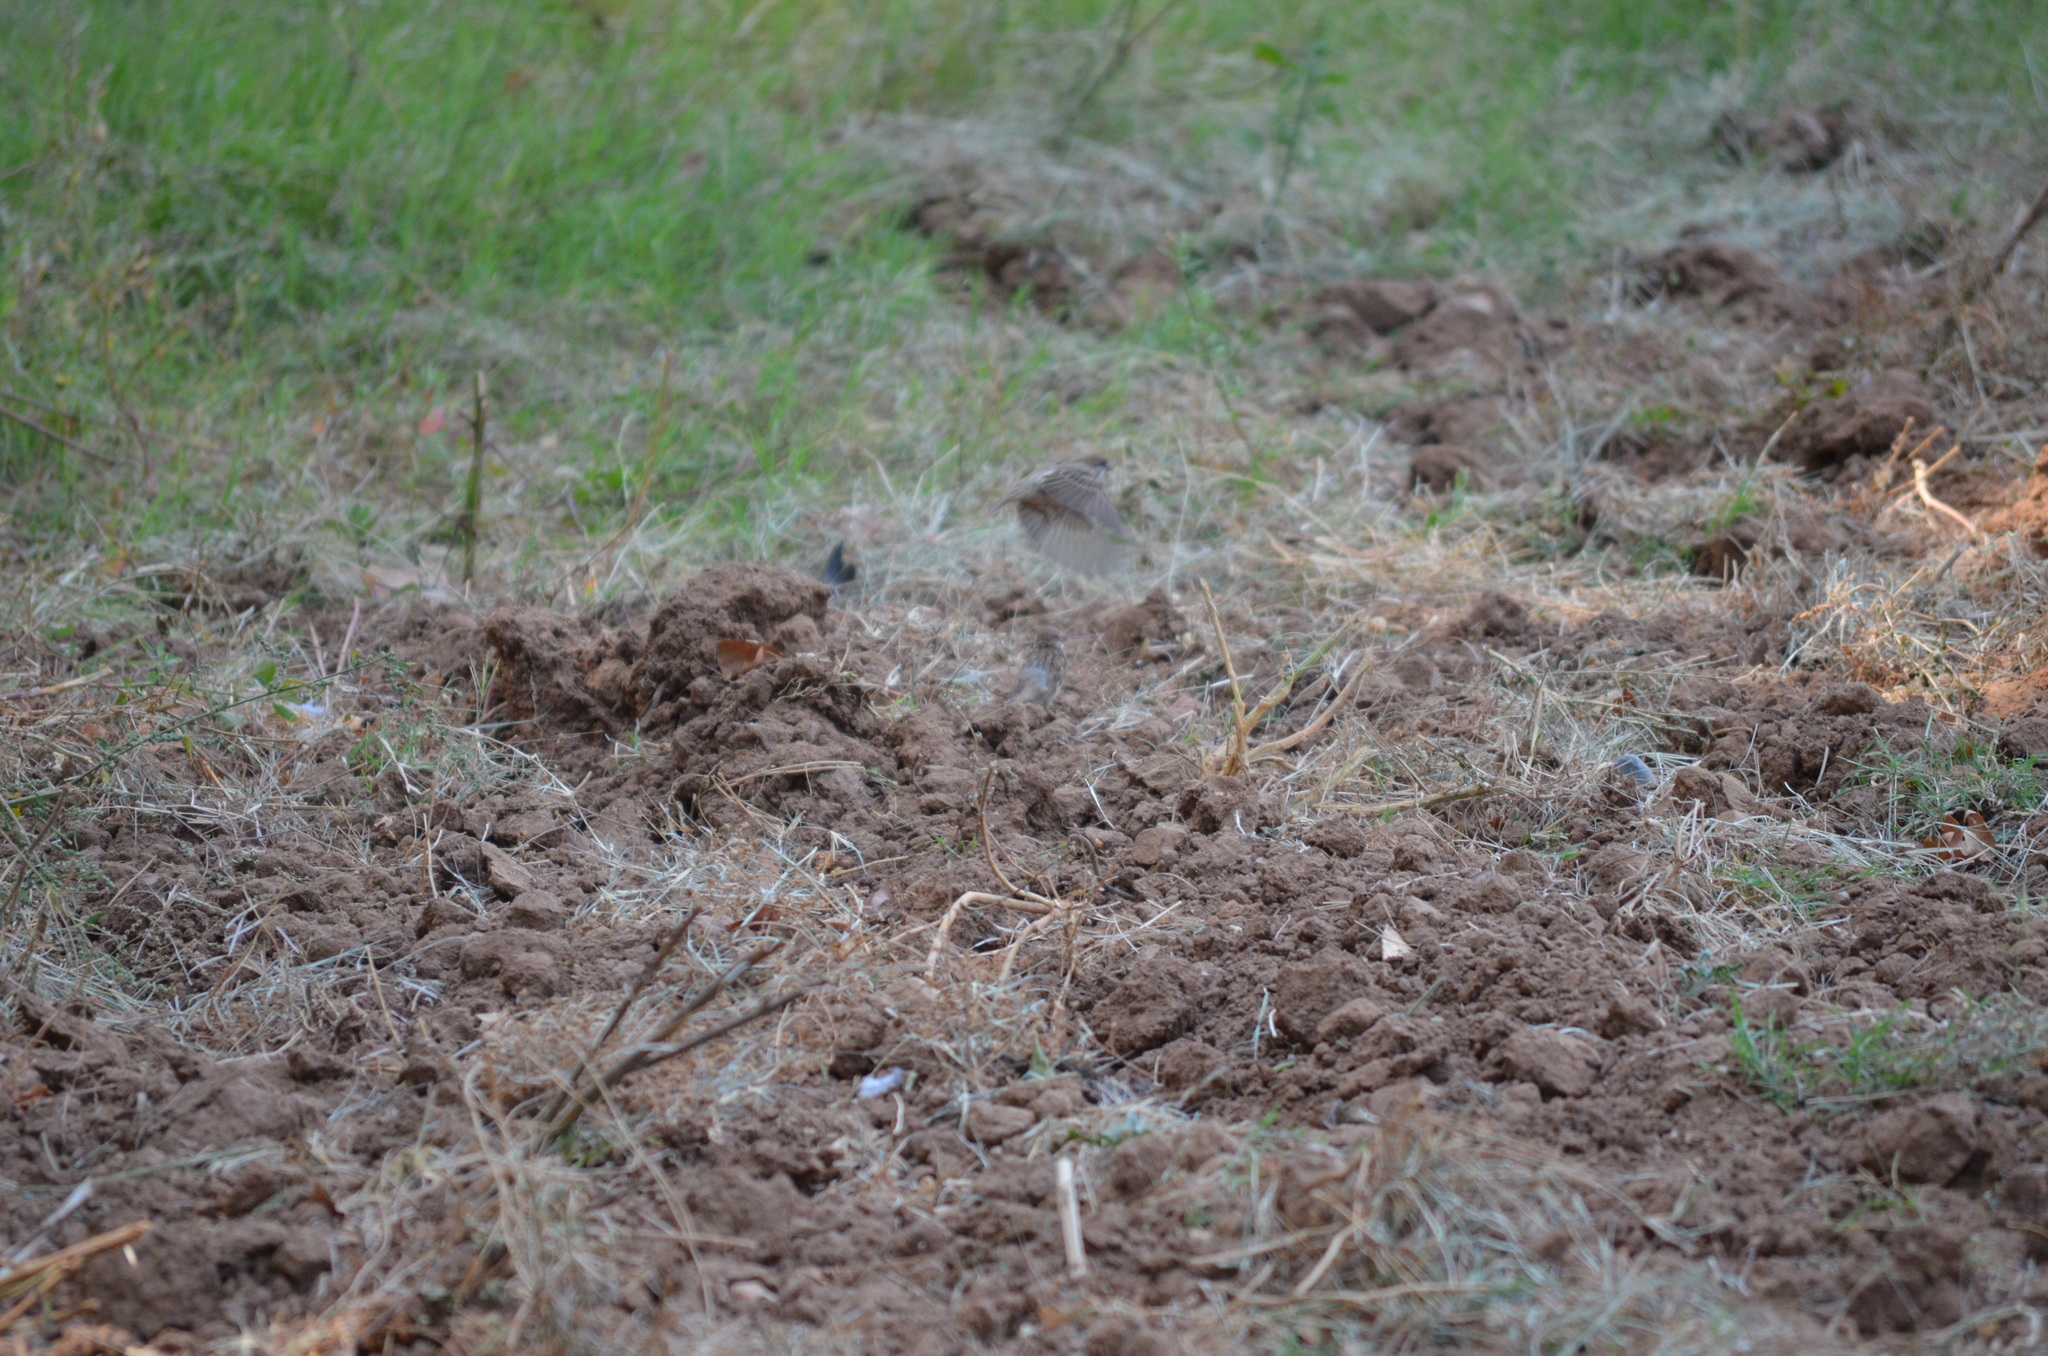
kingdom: Animalia
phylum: Chordata
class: Aves
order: Passeriformes
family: Passeridae
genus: Passer
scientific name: Passer montanus
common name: Eurasian tree sparrow
